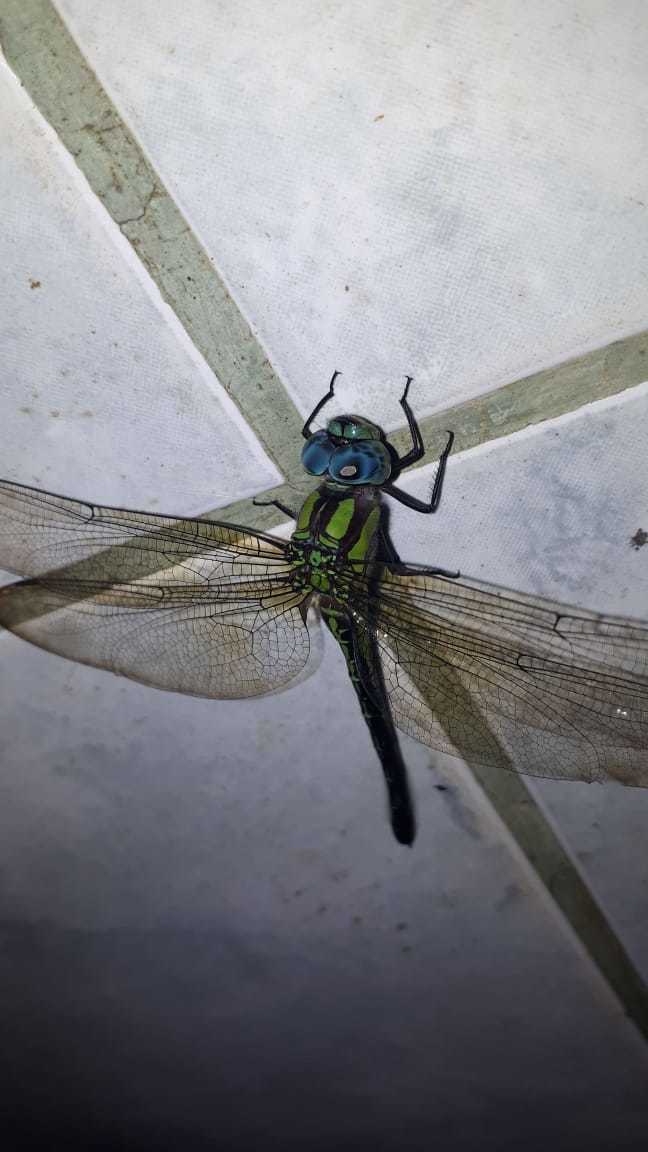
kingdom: Animalia
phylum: Arthropoda
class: Insecta
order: Odonata
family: Aeshnidae
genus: Coryphaeschna
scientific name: Coryphaeschna adnexa
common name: Blue-faced darner
